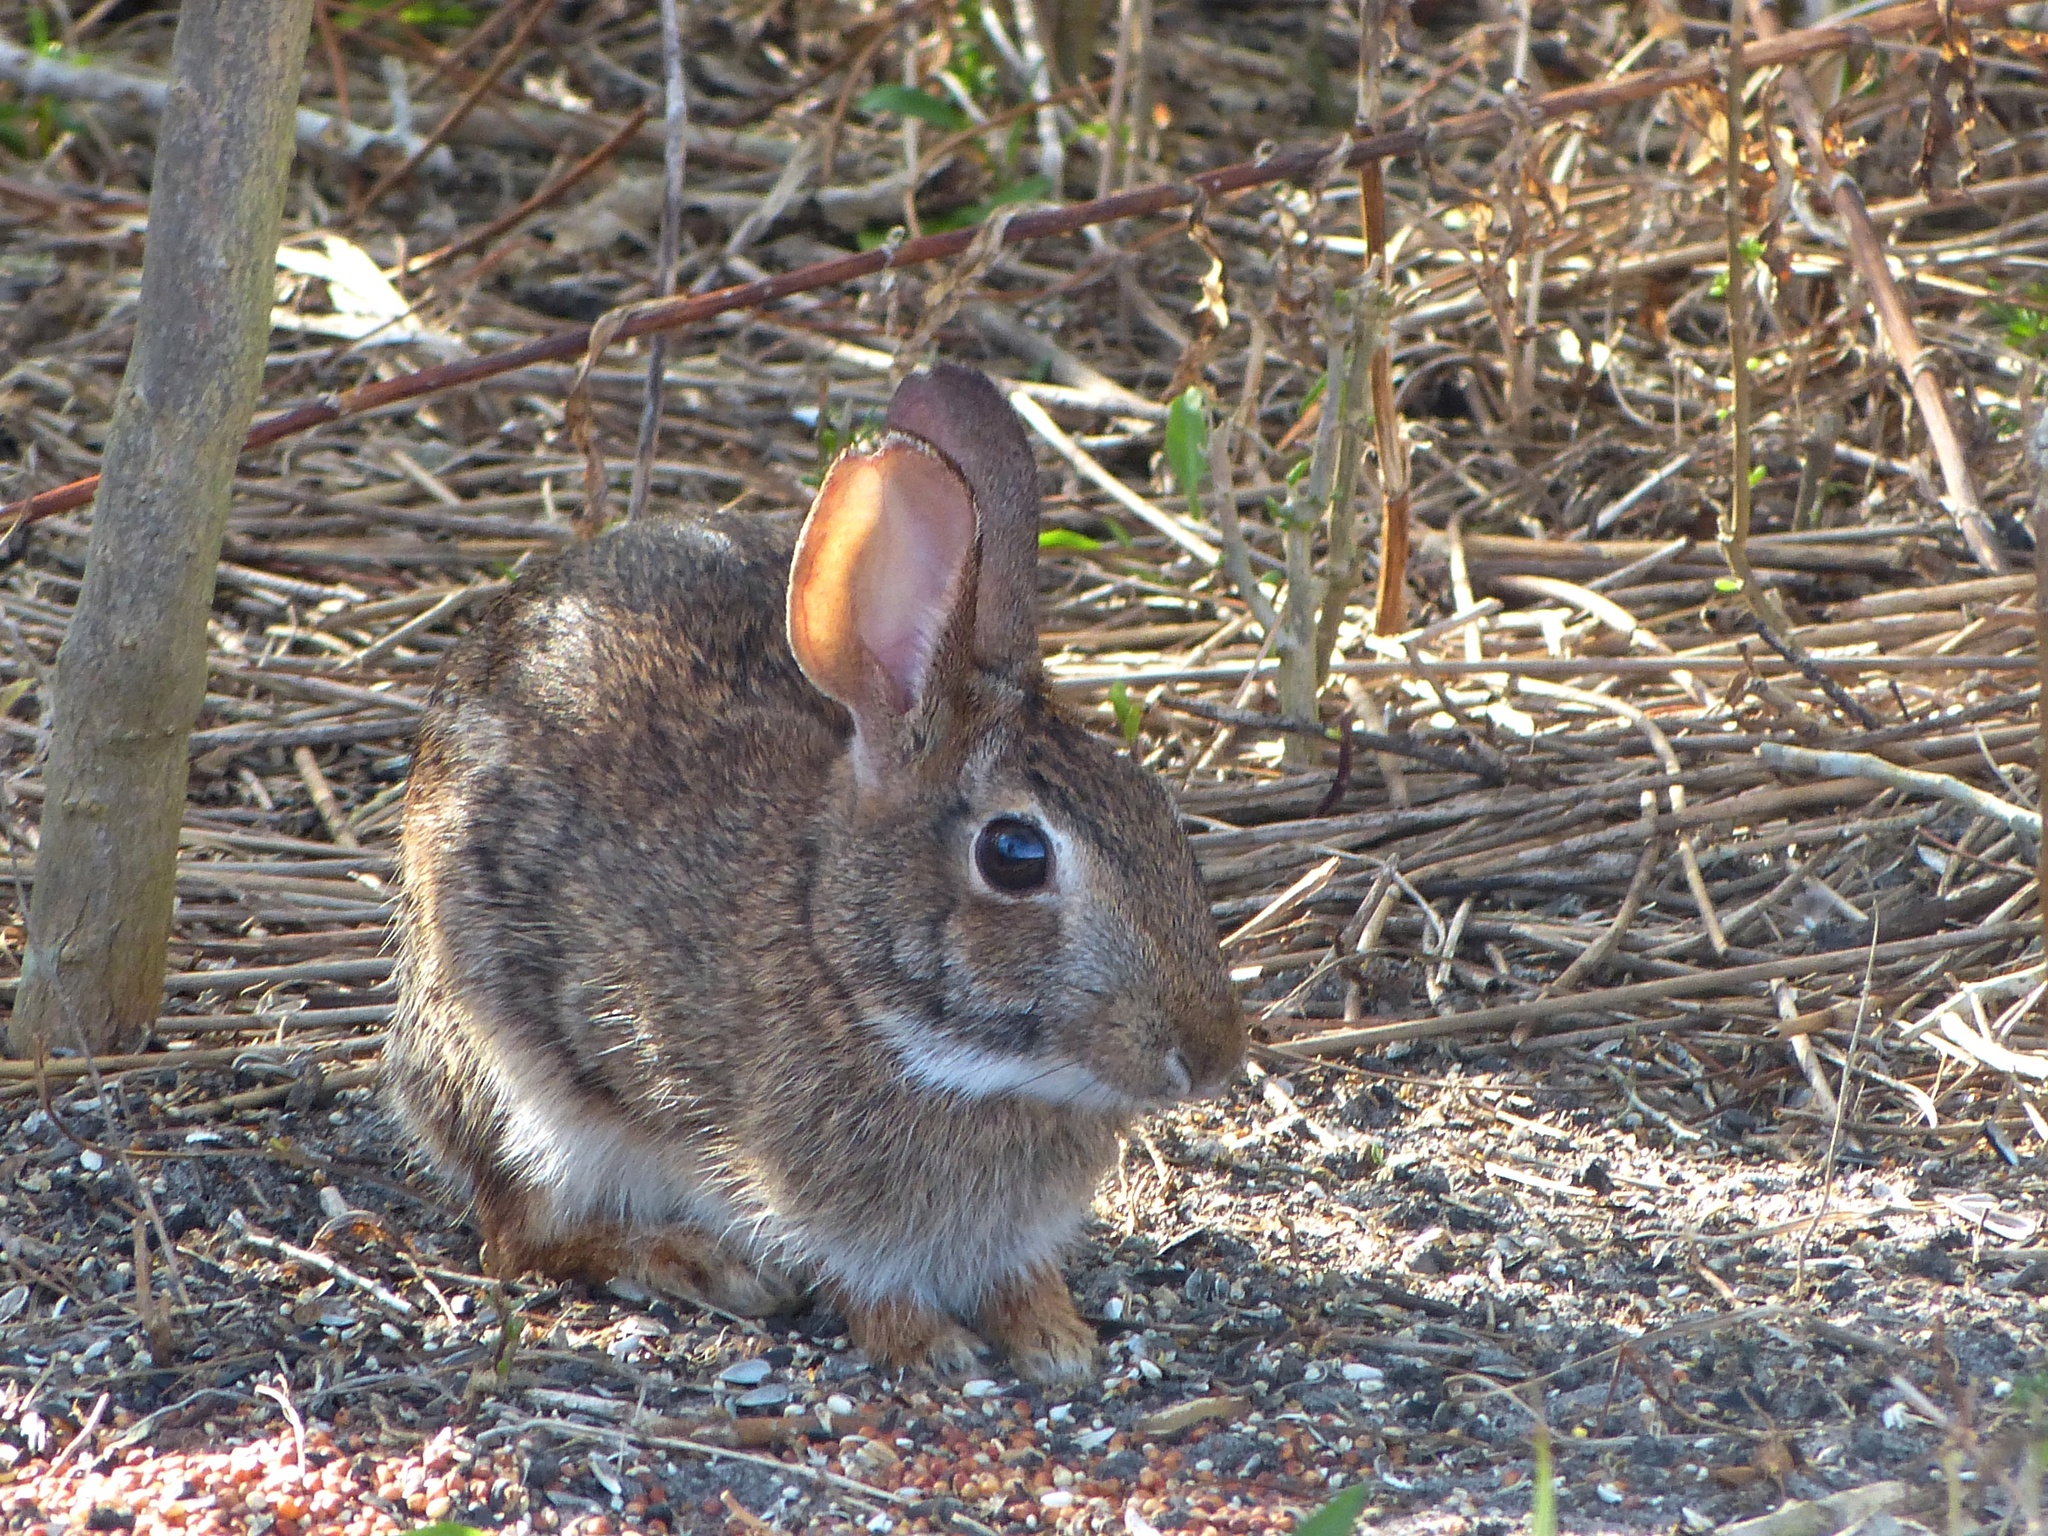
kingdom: Animalia
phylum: Chordata
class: Mammalia
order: Lagomorpha
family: Leporidae
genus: Sylvilagus
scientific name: Sylvilagus floridanus
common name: Eastern cottontail
